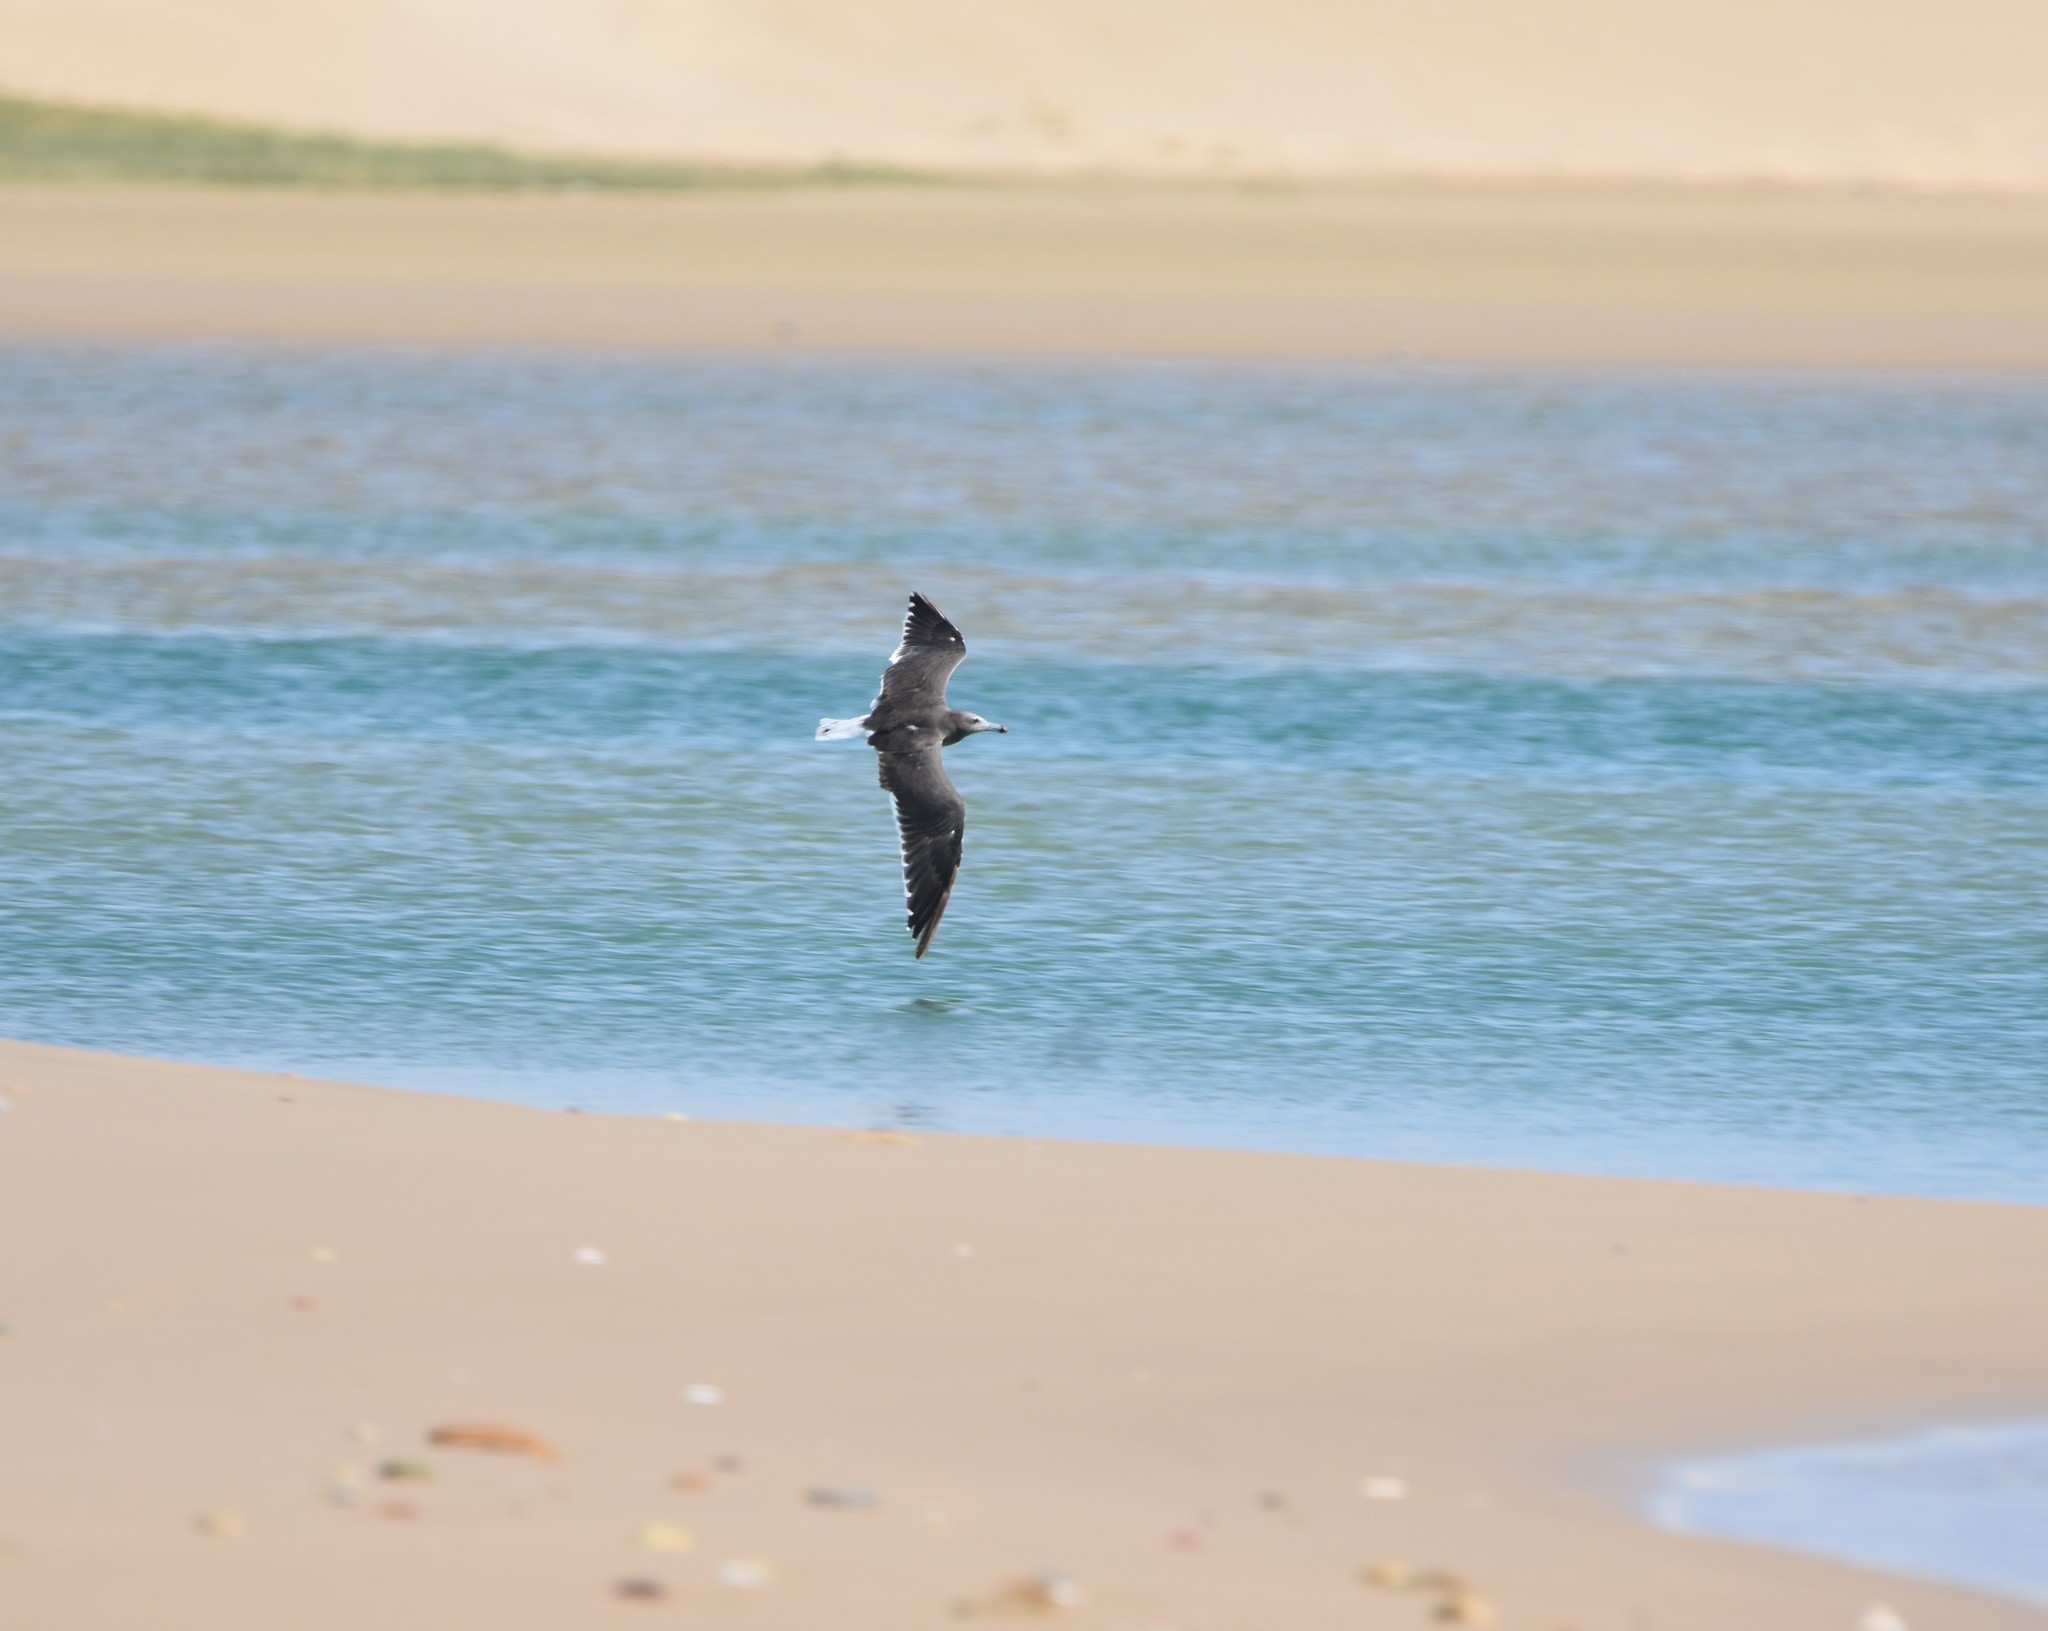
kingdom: Animalia
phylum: Chordata
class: Aves
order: Charadriiformes
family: Laridae
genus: Ichthyaetus
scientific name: Ichthyaetus hemprichii
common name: Sooty gull
